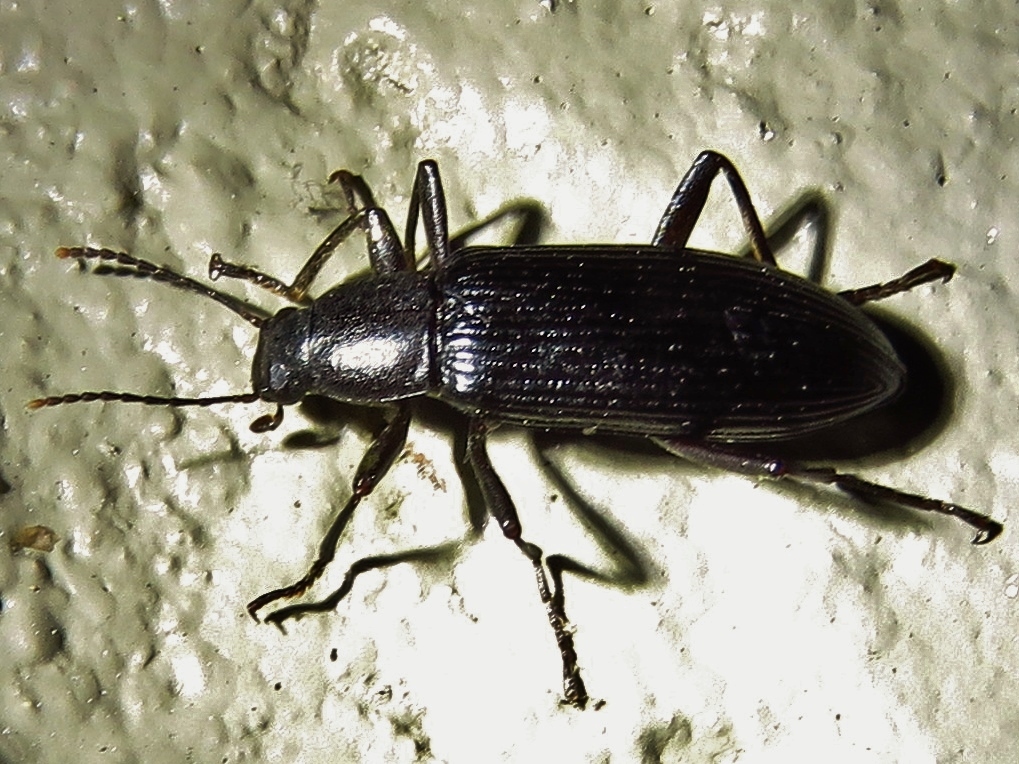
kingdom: Animalia
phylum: Arthropoda
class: Insecta
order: Coleoptera
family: Tenebrionidae
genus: Strongylium
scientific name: Strongylium tenuicolle
